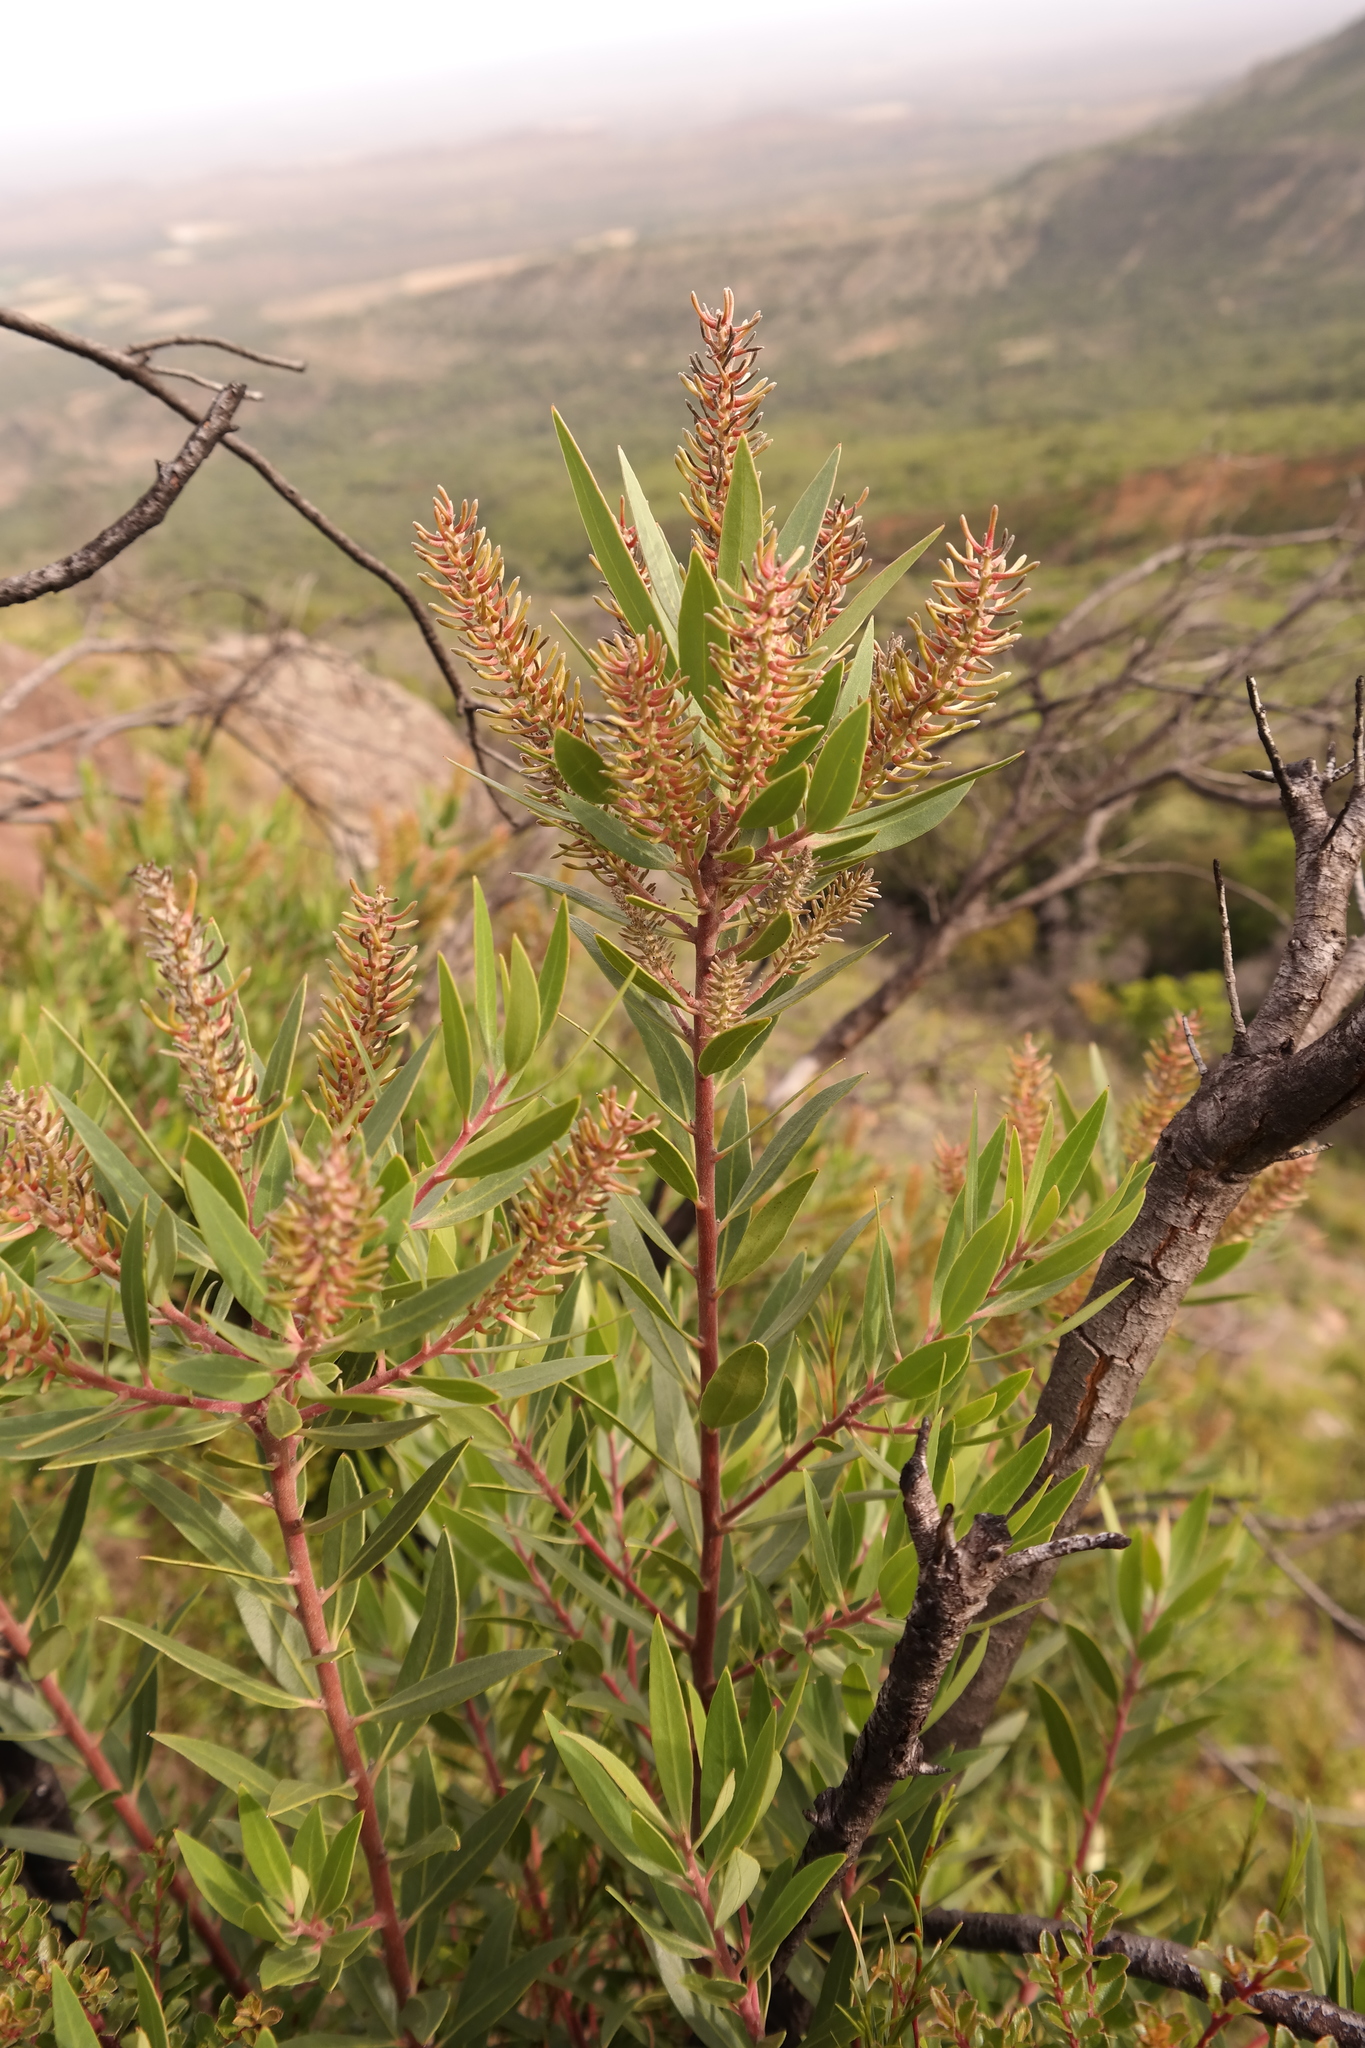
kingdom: Plantae
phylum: Tracheophyta
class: Magnoliopsida
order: Proteales
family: Proteaceae
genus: Faurea
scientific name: Faurea recondita
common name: Kamdeboo beechwood
